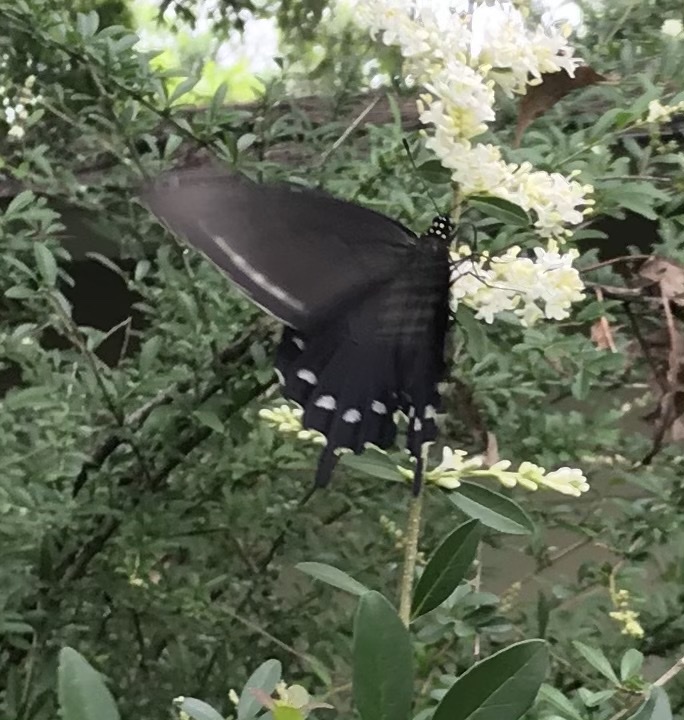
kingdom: Animalia
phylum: Arthropoda
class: Insecta
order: Lepidoptera
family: Papilionidae
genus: Battus
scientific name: Battus philenor
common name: Pipevine swallowtail
